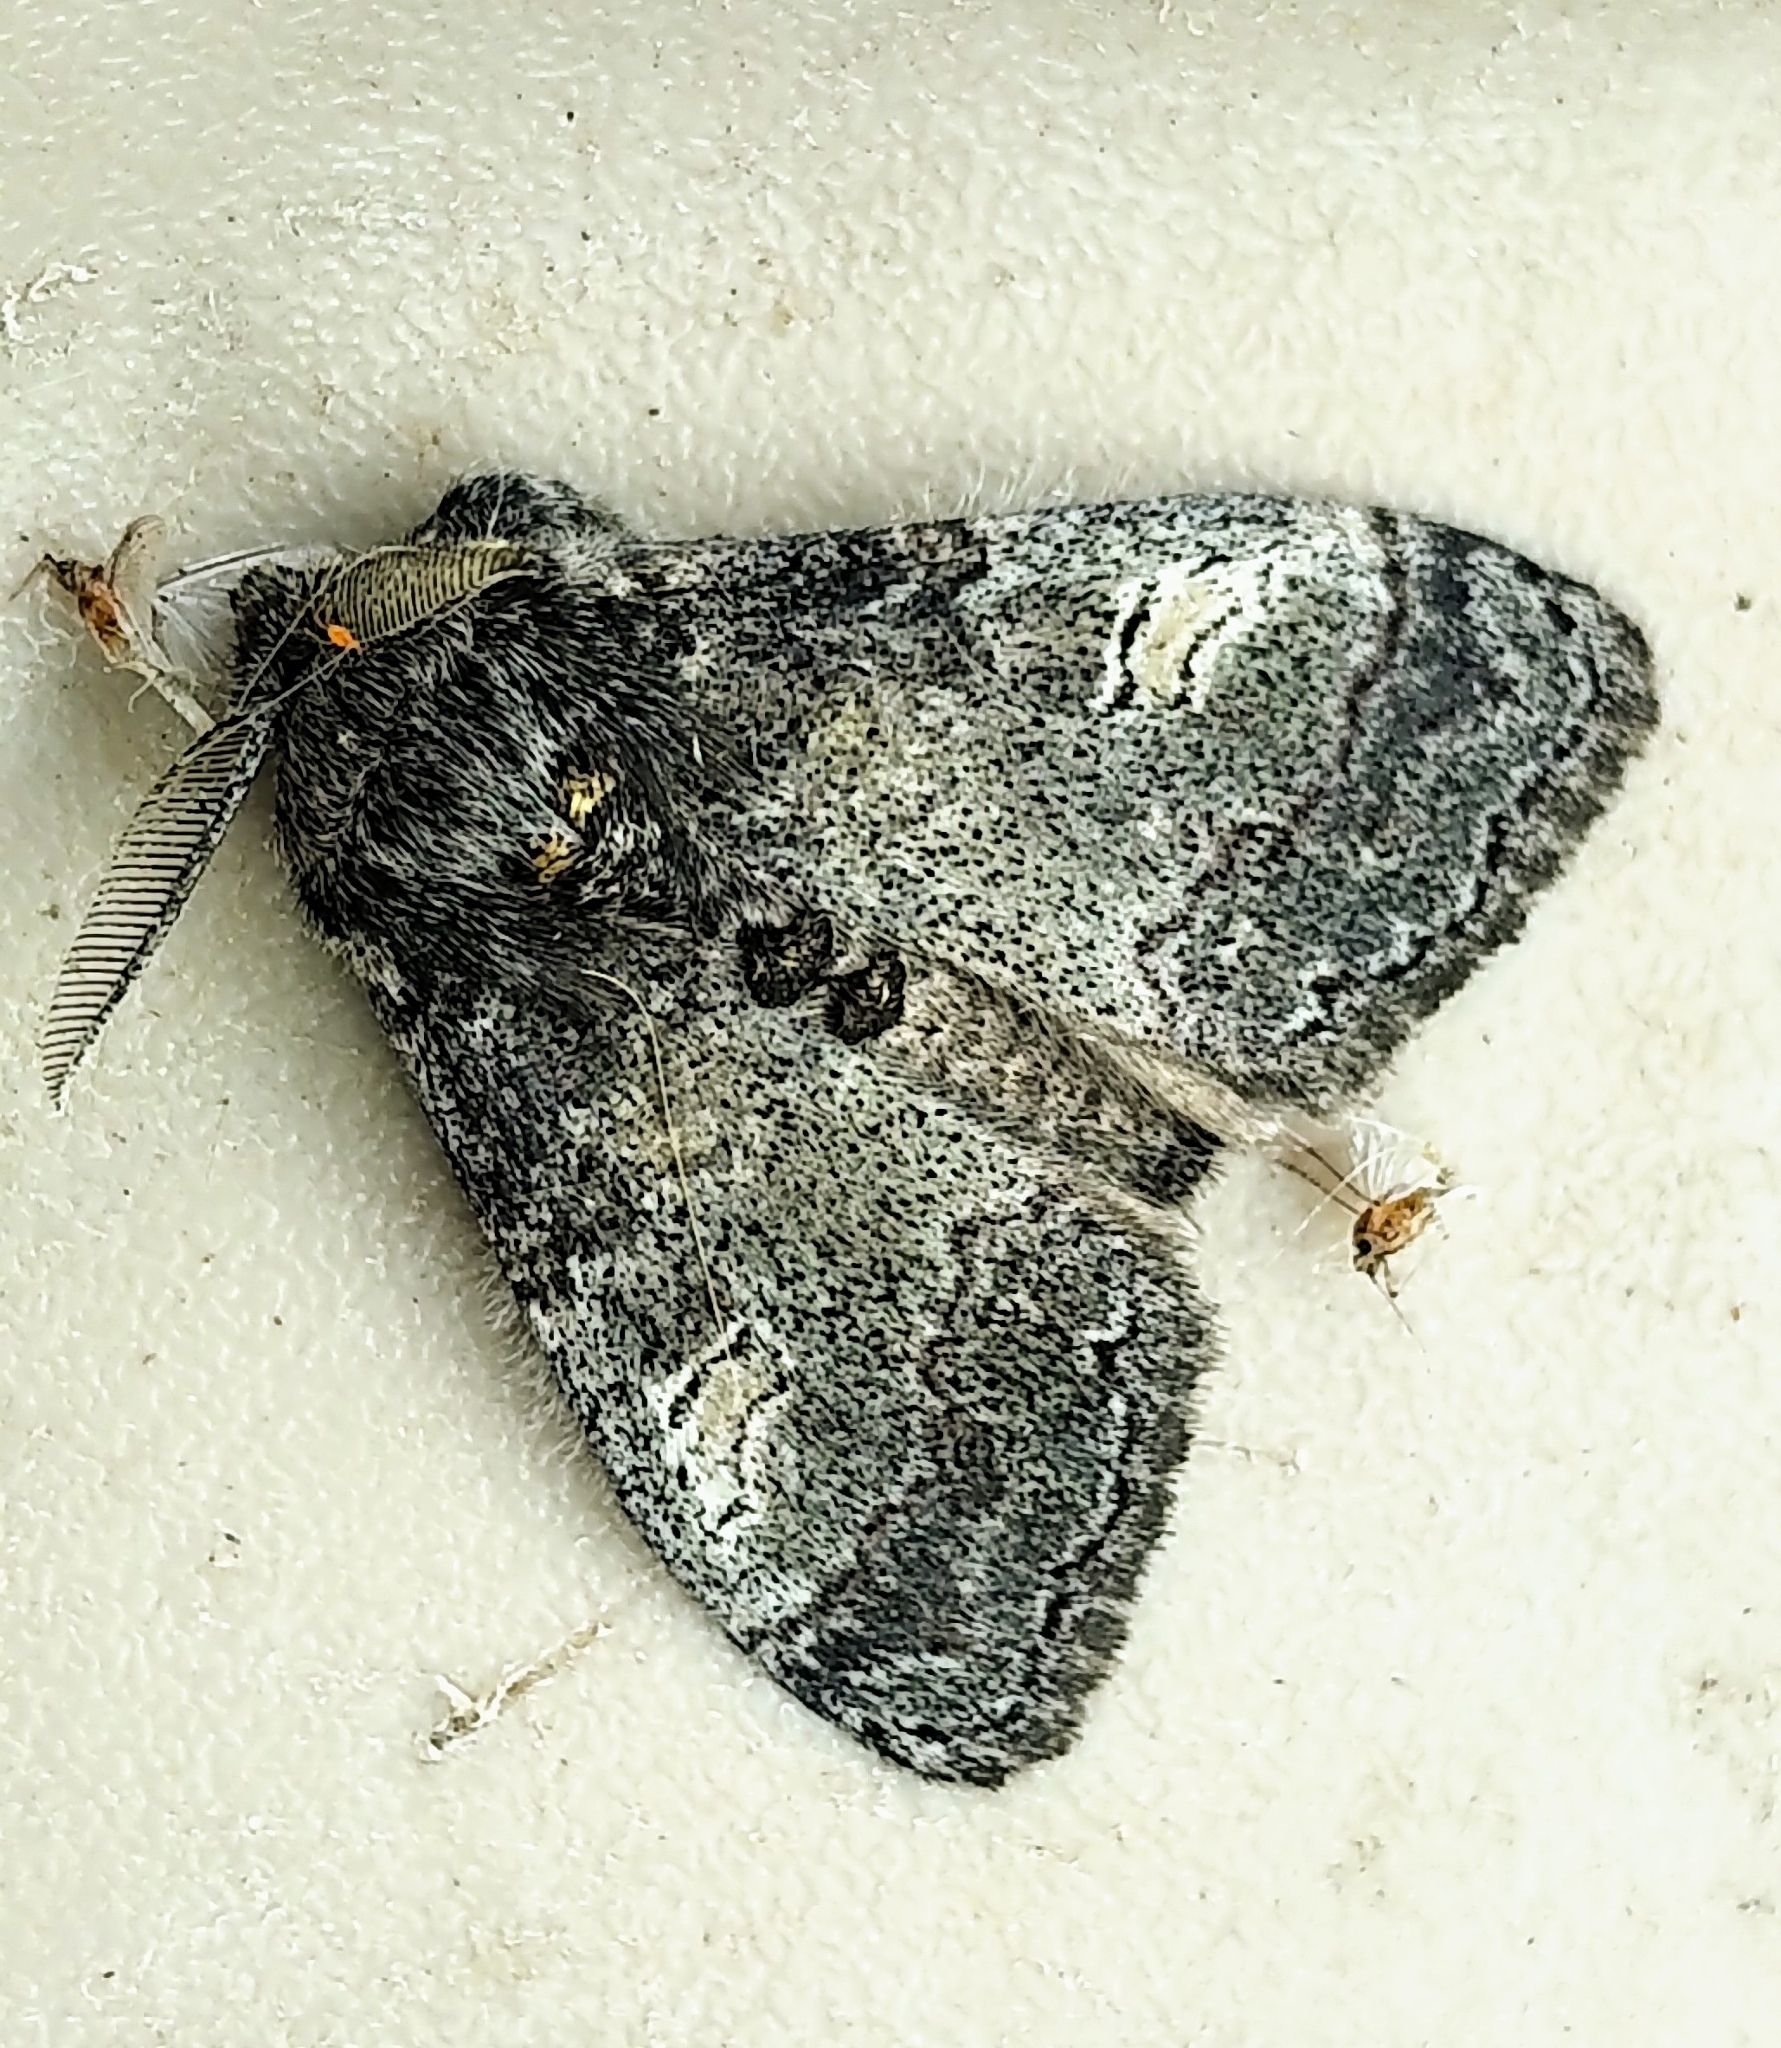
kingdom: Animalia
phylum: Arthropoda
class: Insecta
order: Lepidoptera
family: Erebidae
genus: Dasychira
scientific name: Dasychira vagans
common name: Variable tussock moth
